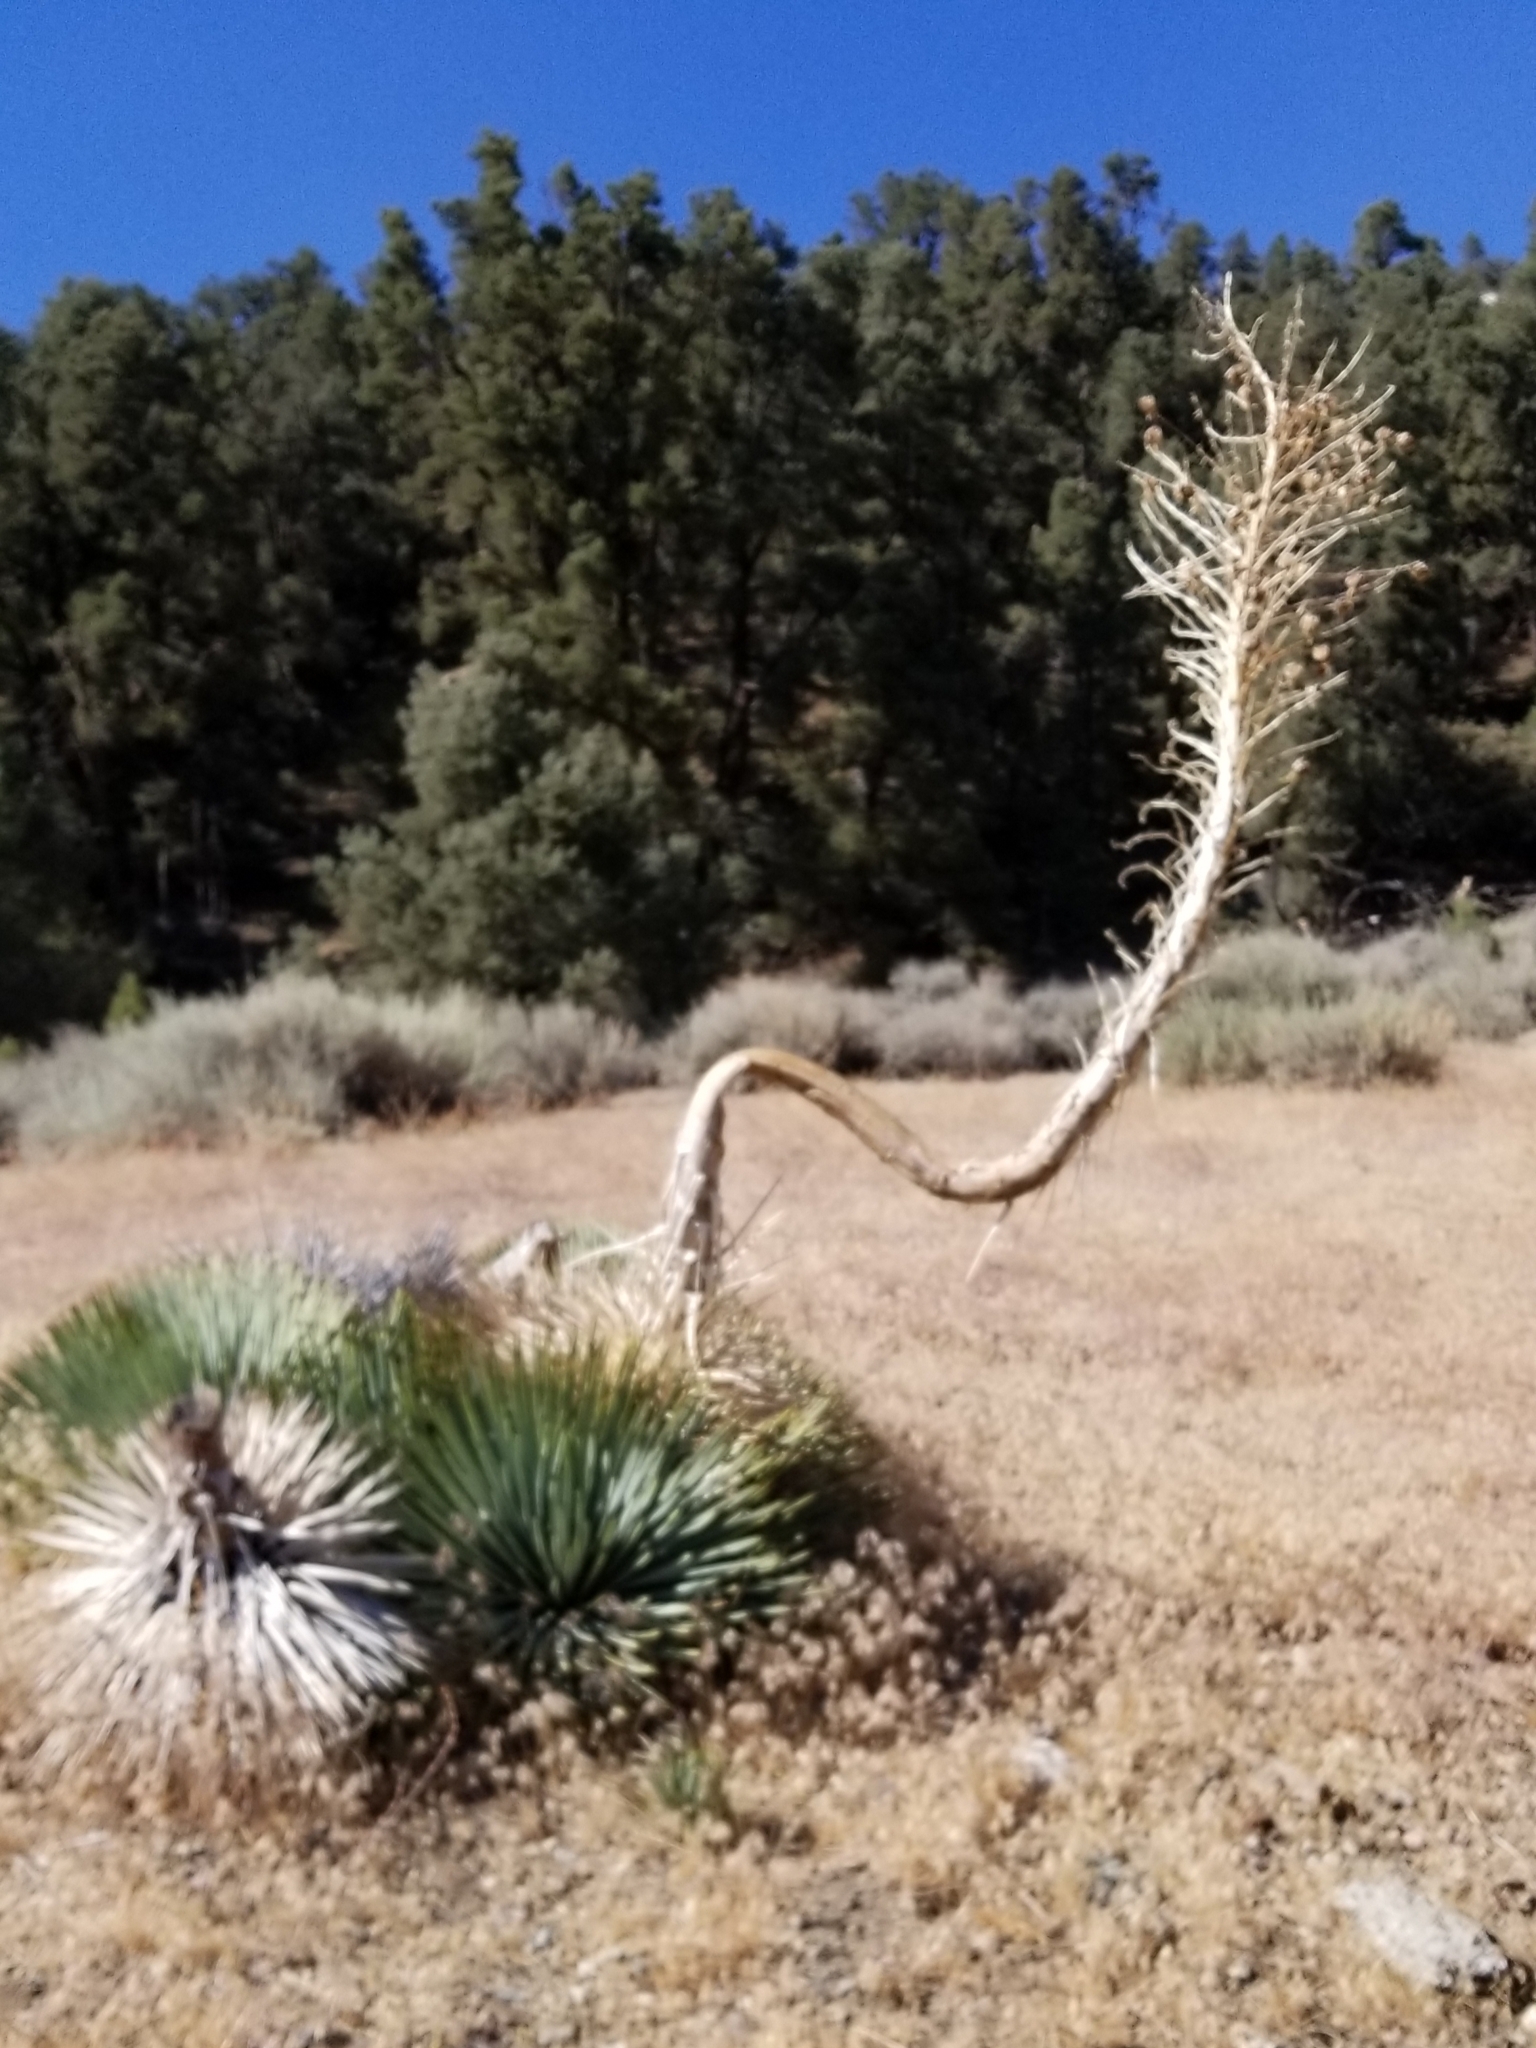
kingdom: Plantae
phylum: Tracheophyta
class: Liliopsida
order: Asparagales
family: Asparagaceae
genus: Hesperoyucca
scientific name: Hesperoyucca whipplei
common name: Our lord's-candle
